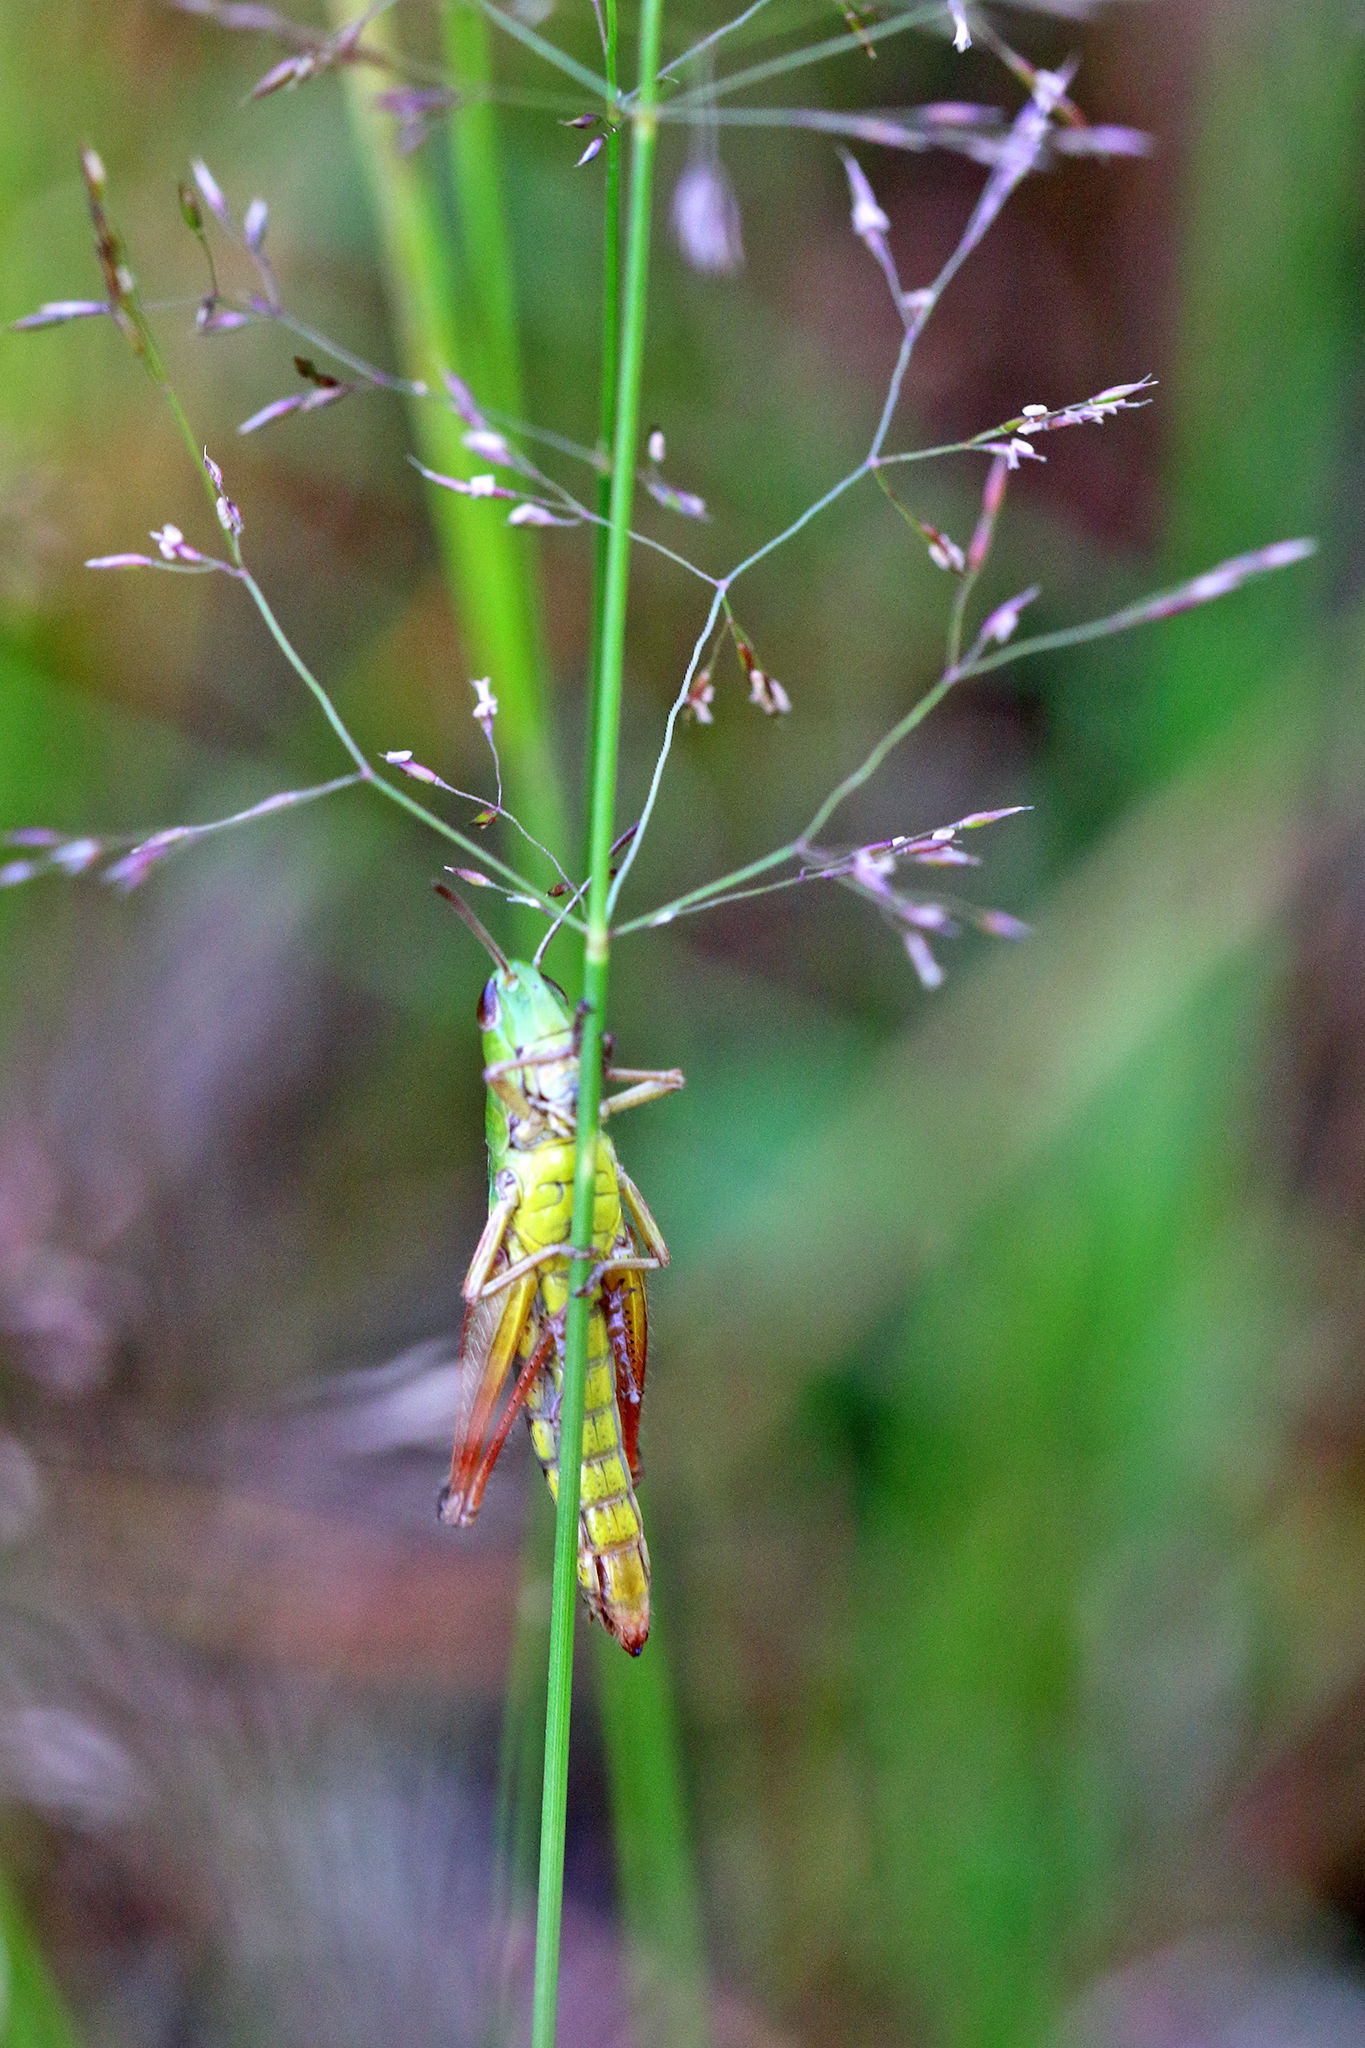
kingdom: Animalia
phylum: Arthropoda
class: Insecta
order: Orthoptera
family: Acrididae
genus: Pseudochorthippus
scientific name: Pseudochorthippus parallelus
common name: Meadow grasshopper
